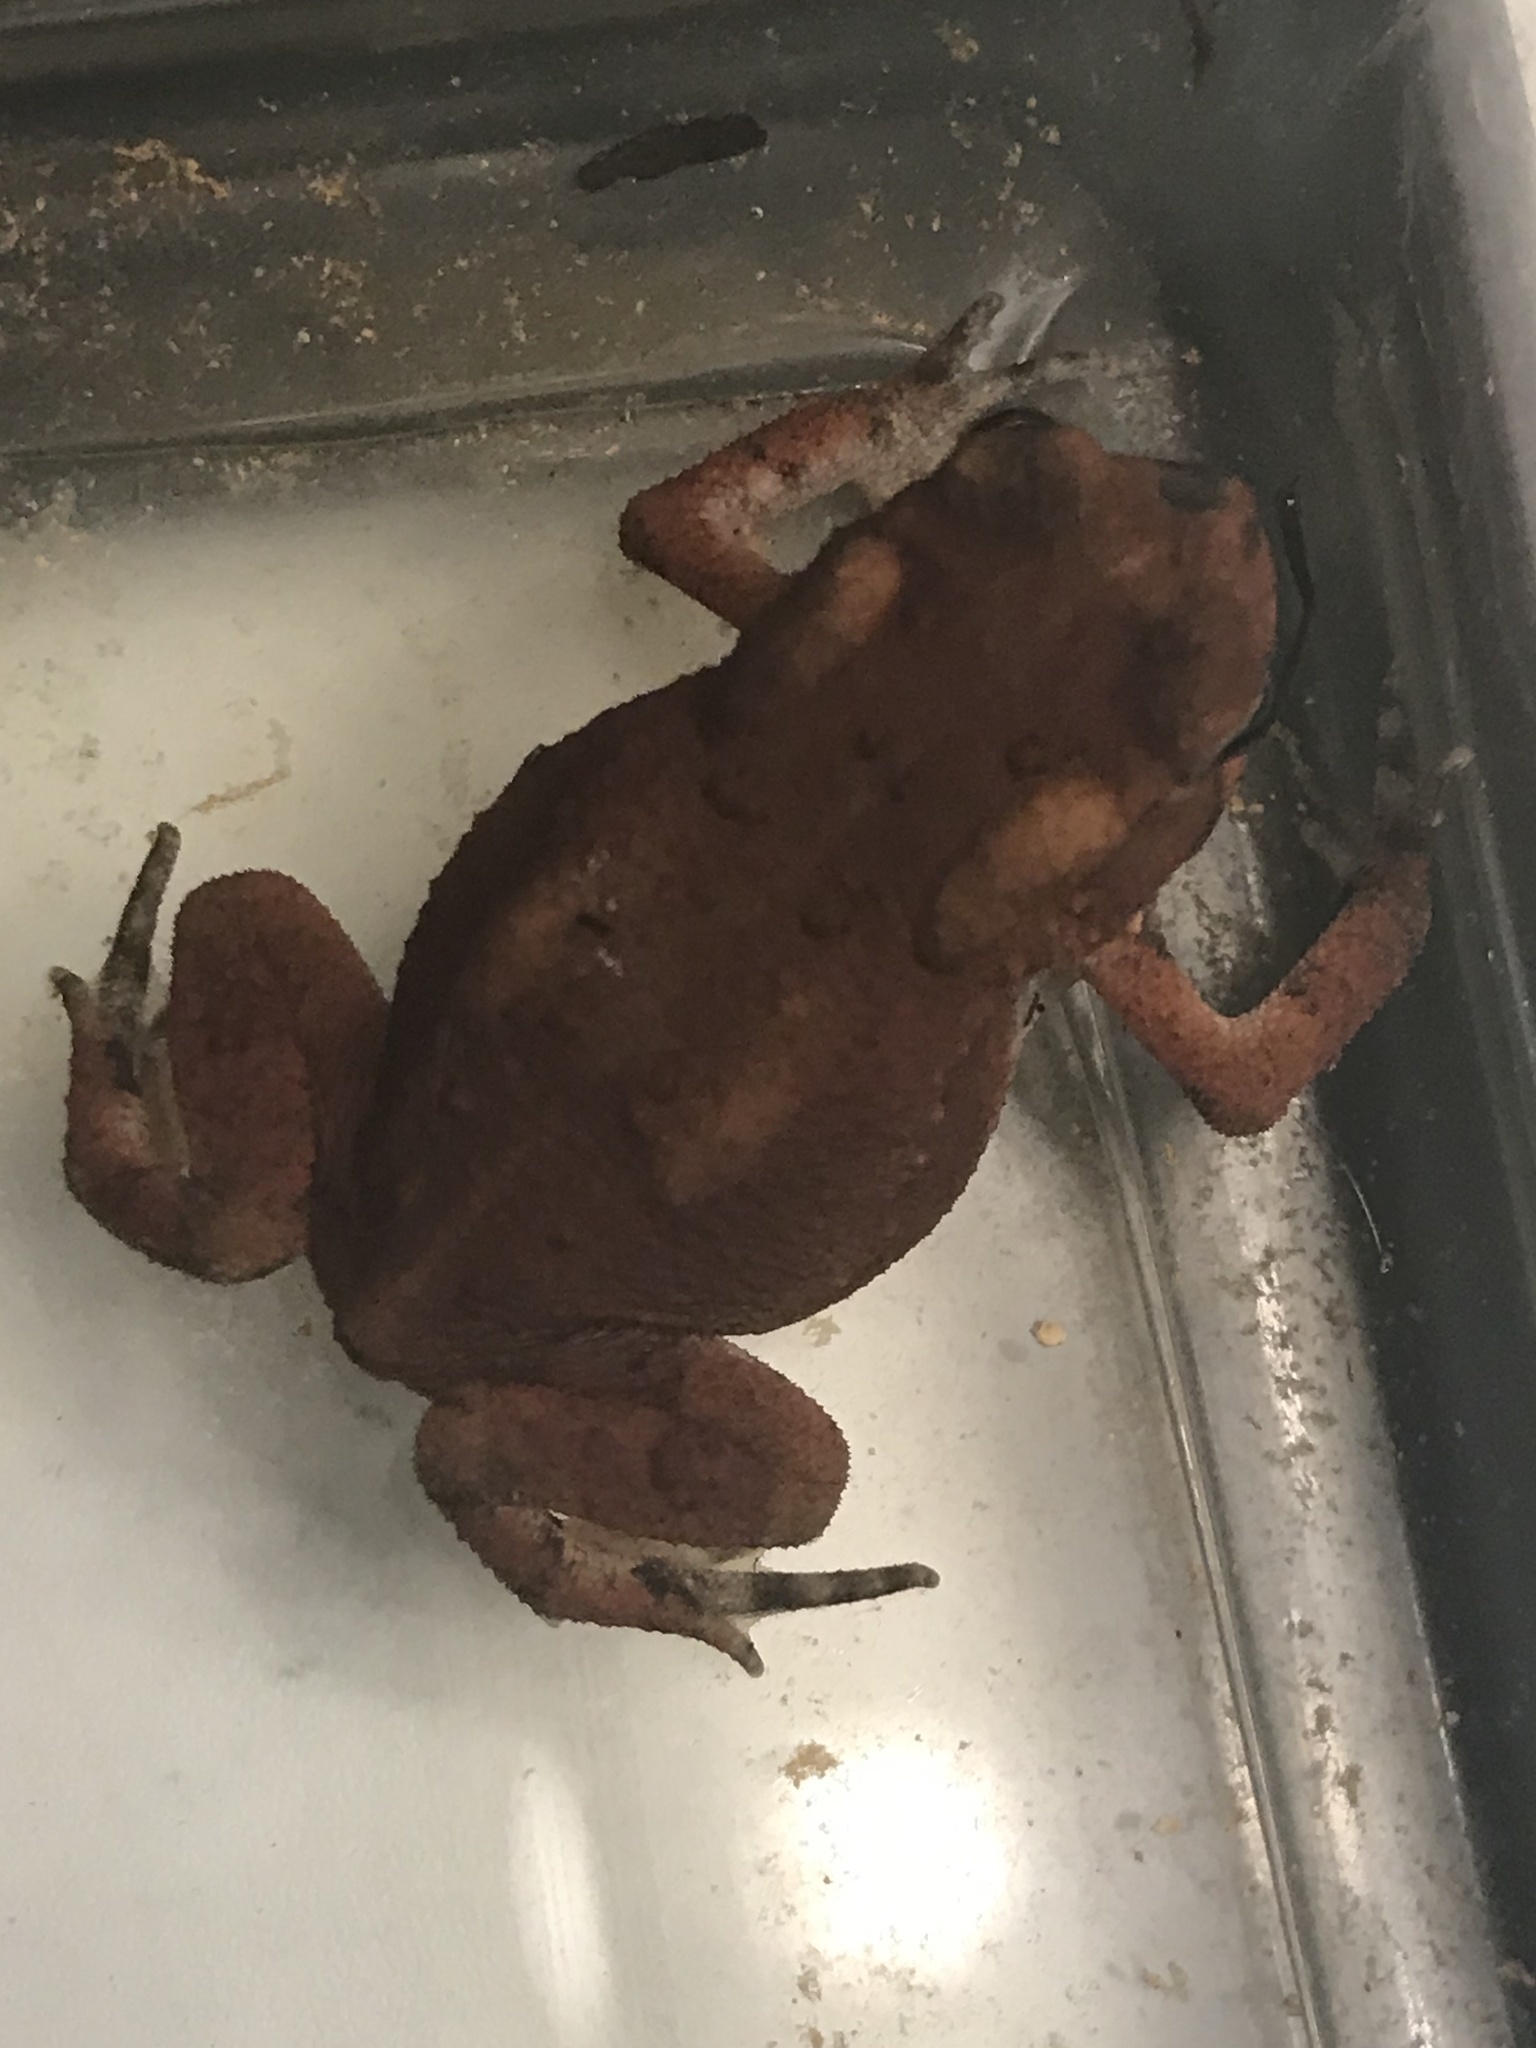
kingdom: Animalia
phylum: Chordata
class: Amphibia
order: Anura
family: Bufonidae
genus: Anaxyrus
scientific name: Anaxyrus americanus
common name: American toad
